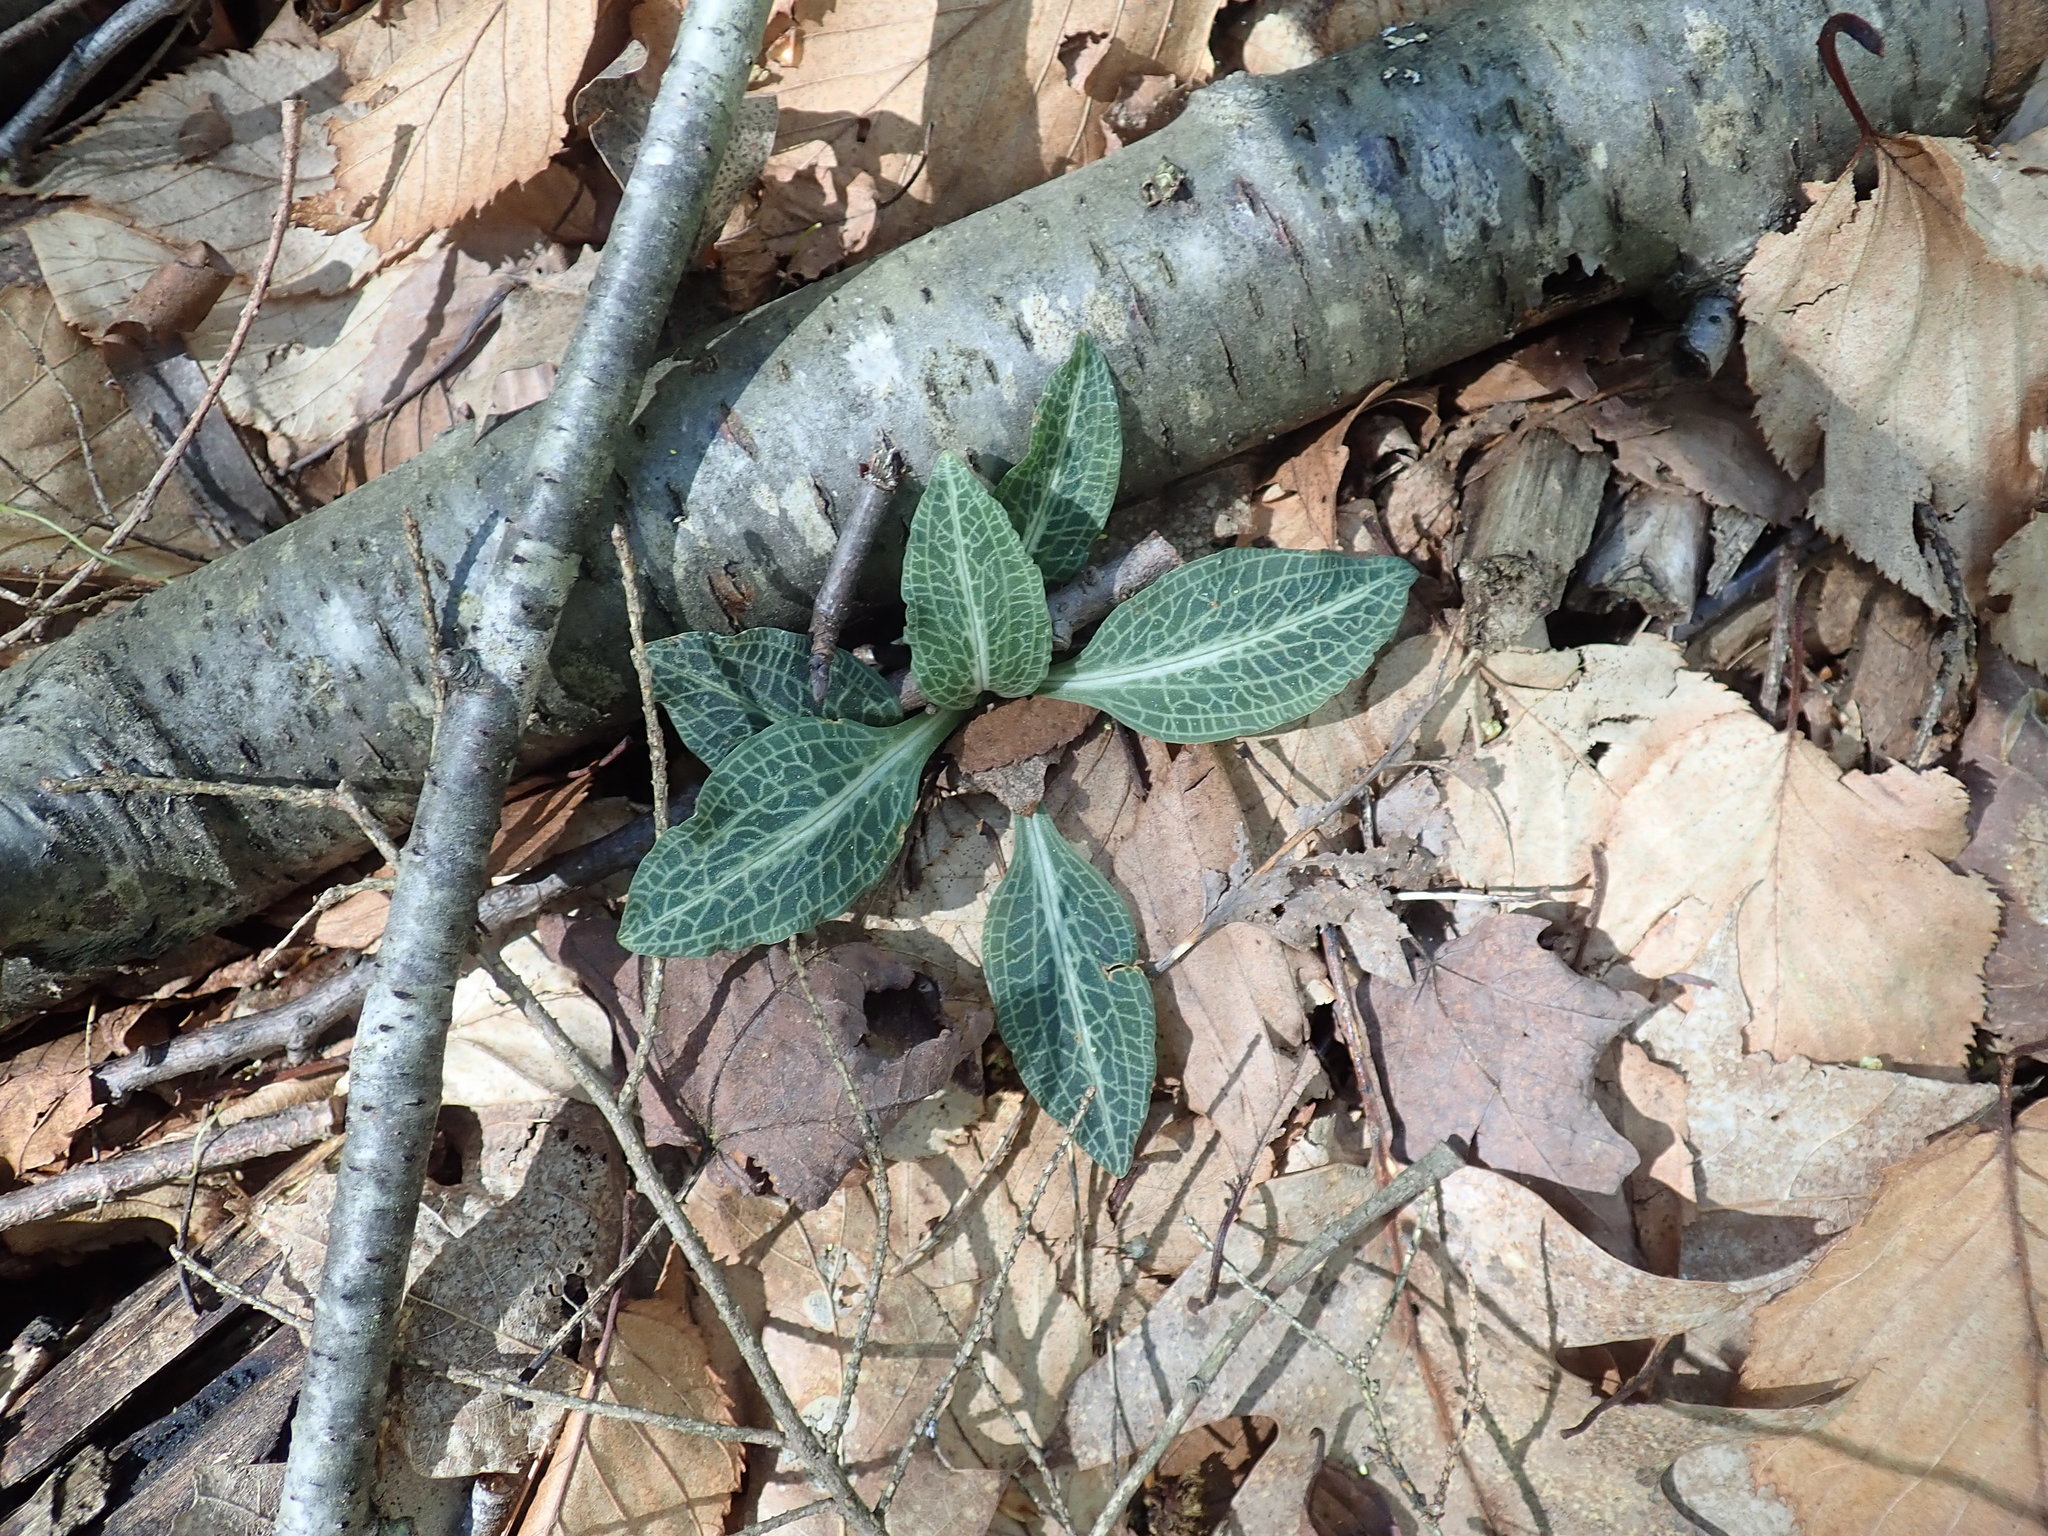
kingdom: Plantae
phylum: Tracheophyta
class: Liliopsida
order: Asparagales
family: Orchidaceae
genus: Goodyera
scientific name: Goodyera pubescens
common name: Downy rattlesnake-plantain
